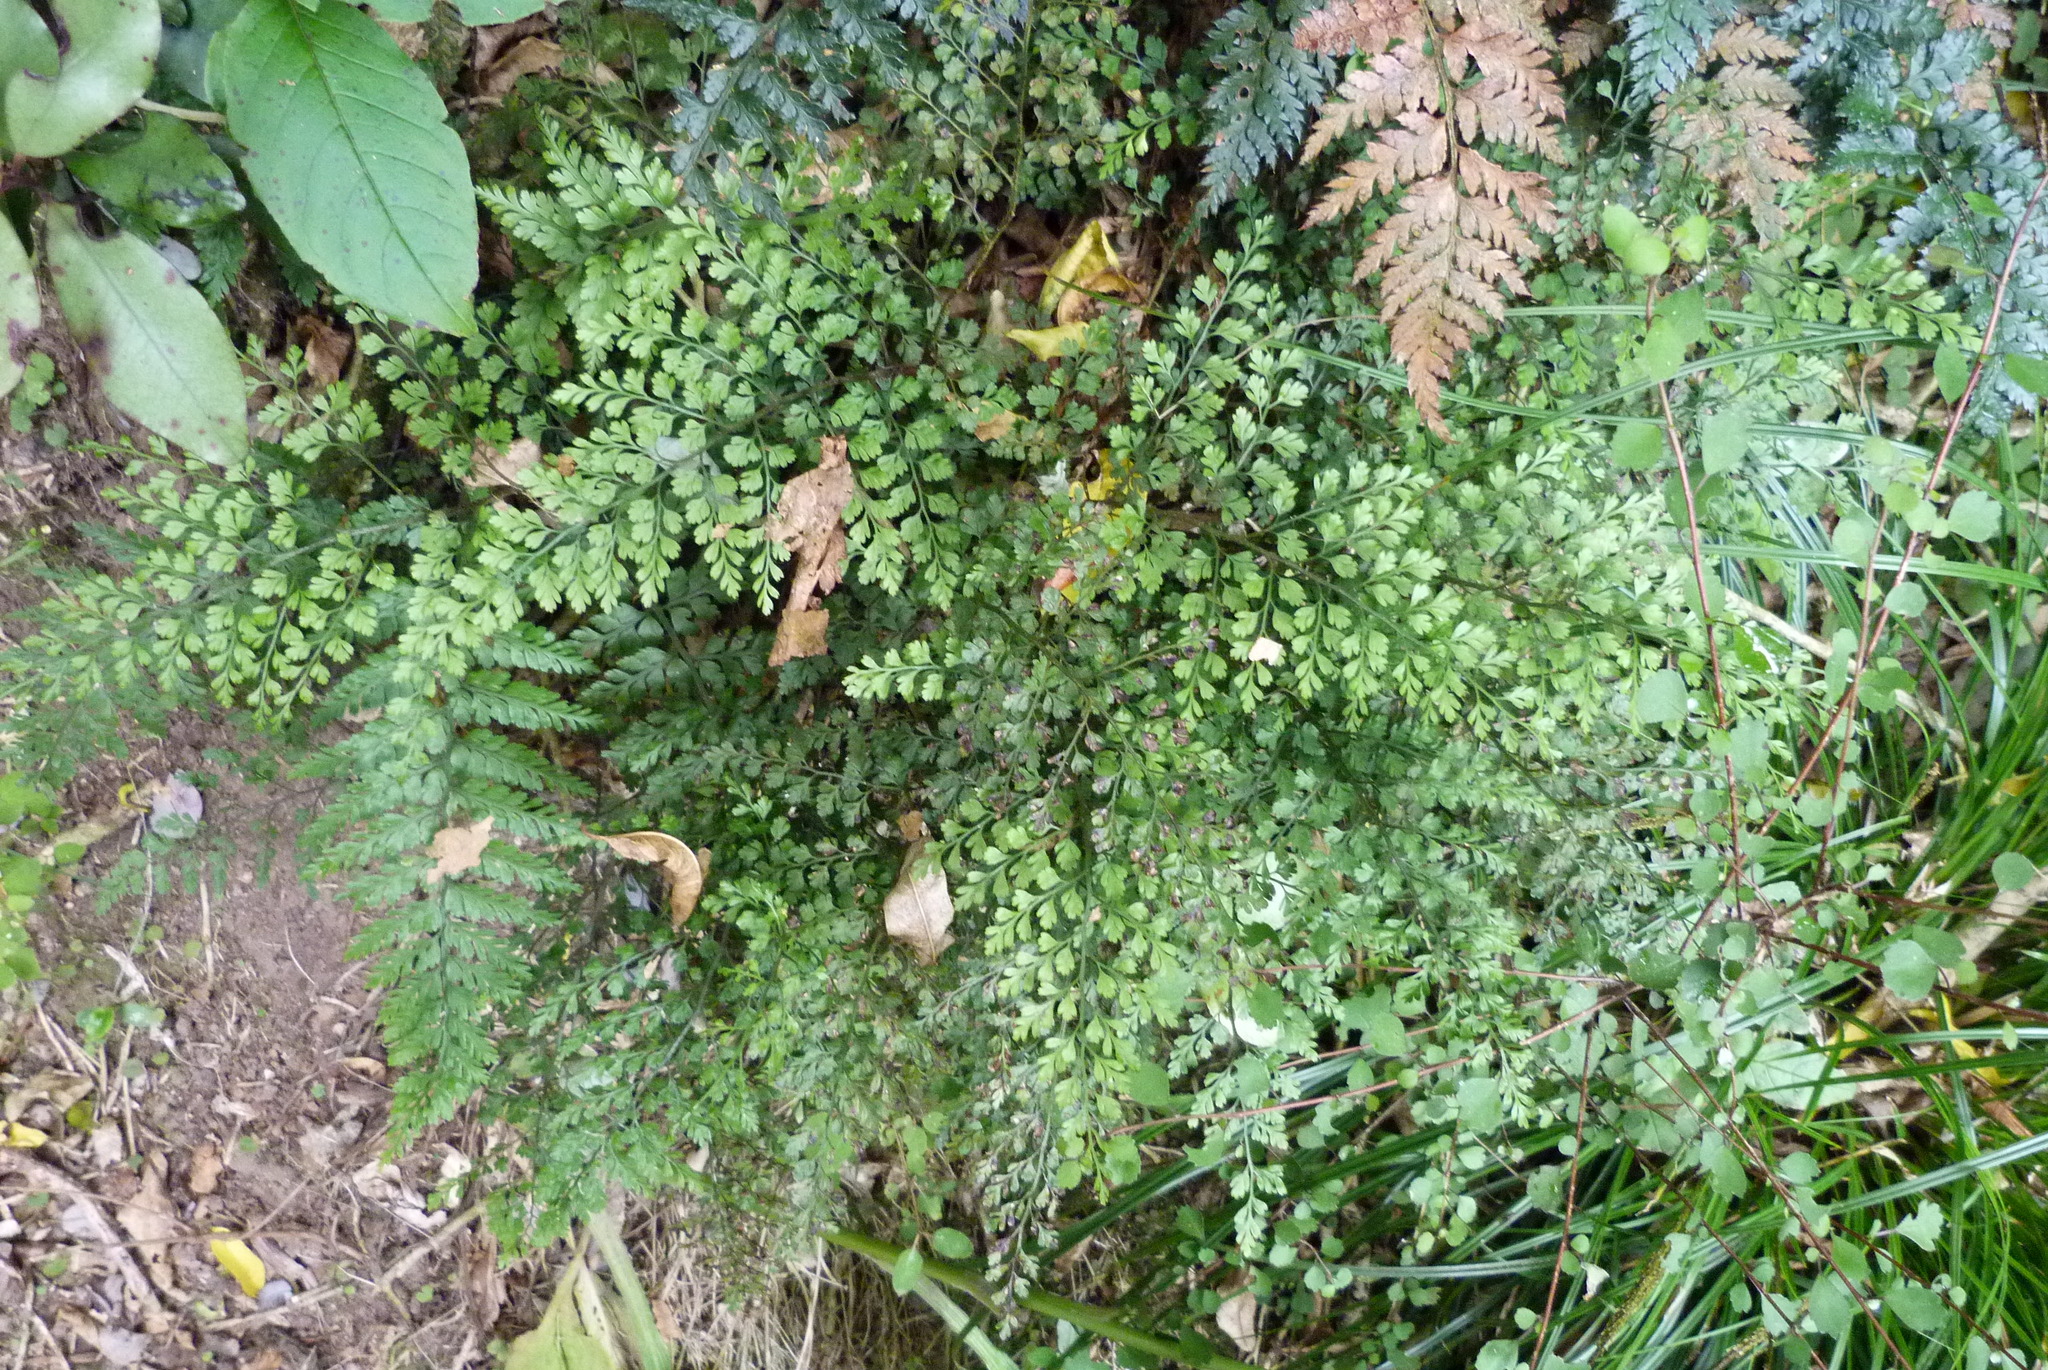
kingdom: Plantae
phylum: Tracheophyta
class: Polypodiopsida
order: Polypodiales
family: Aspleniaceae
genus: Asplenium
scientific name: Asplenium hookerianum
